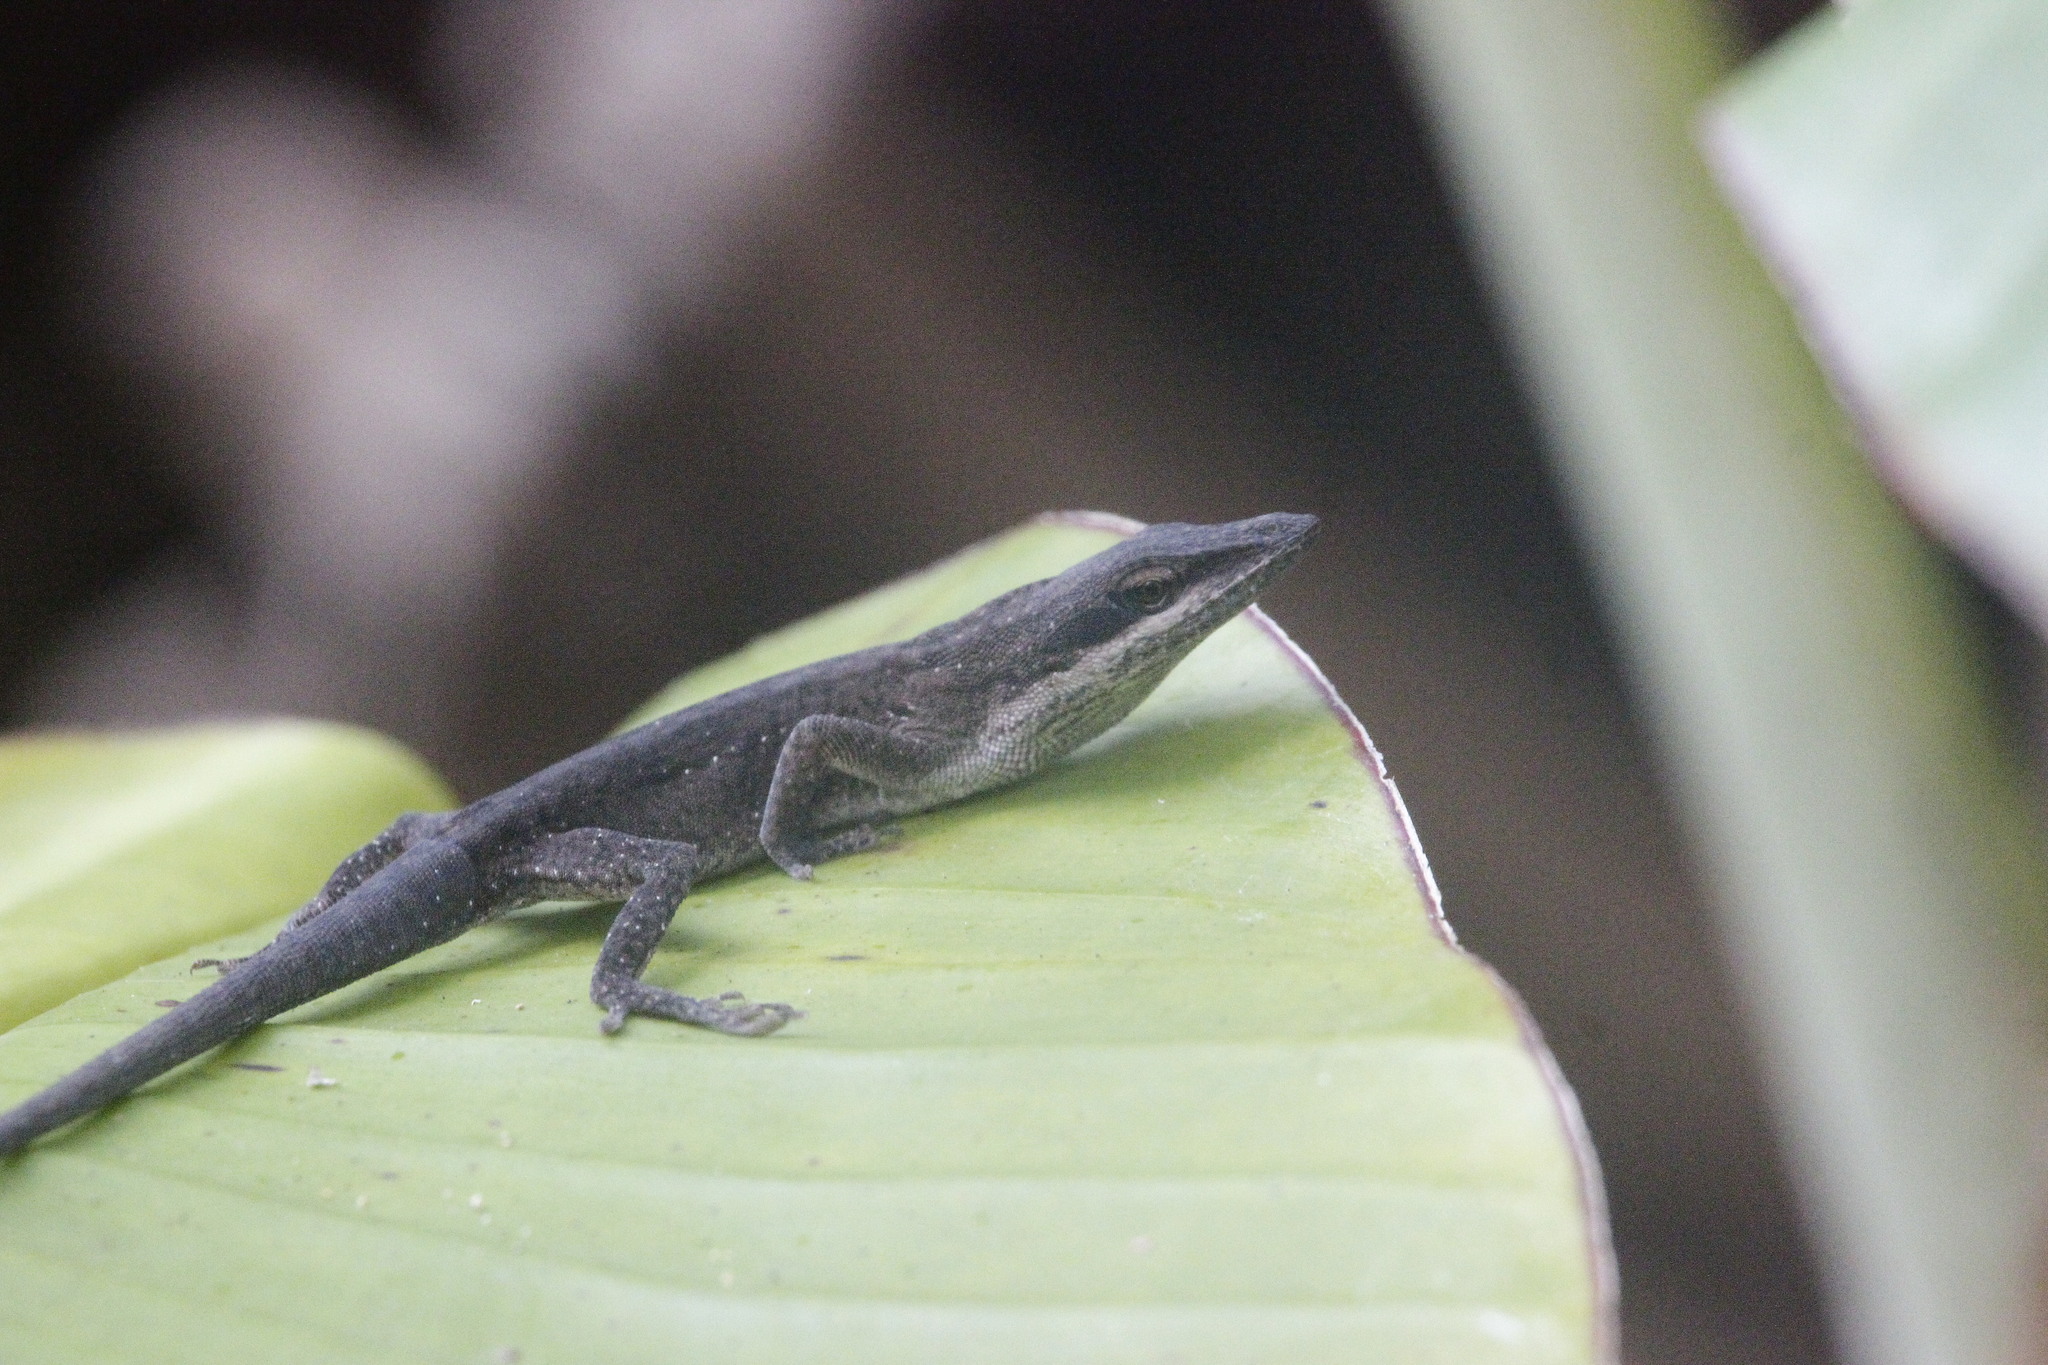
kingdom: Animalia
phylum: Chordata
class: Squamata
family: Dactyloidae
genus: Anolis
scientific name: Anolis carolinensis
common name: Green anole
